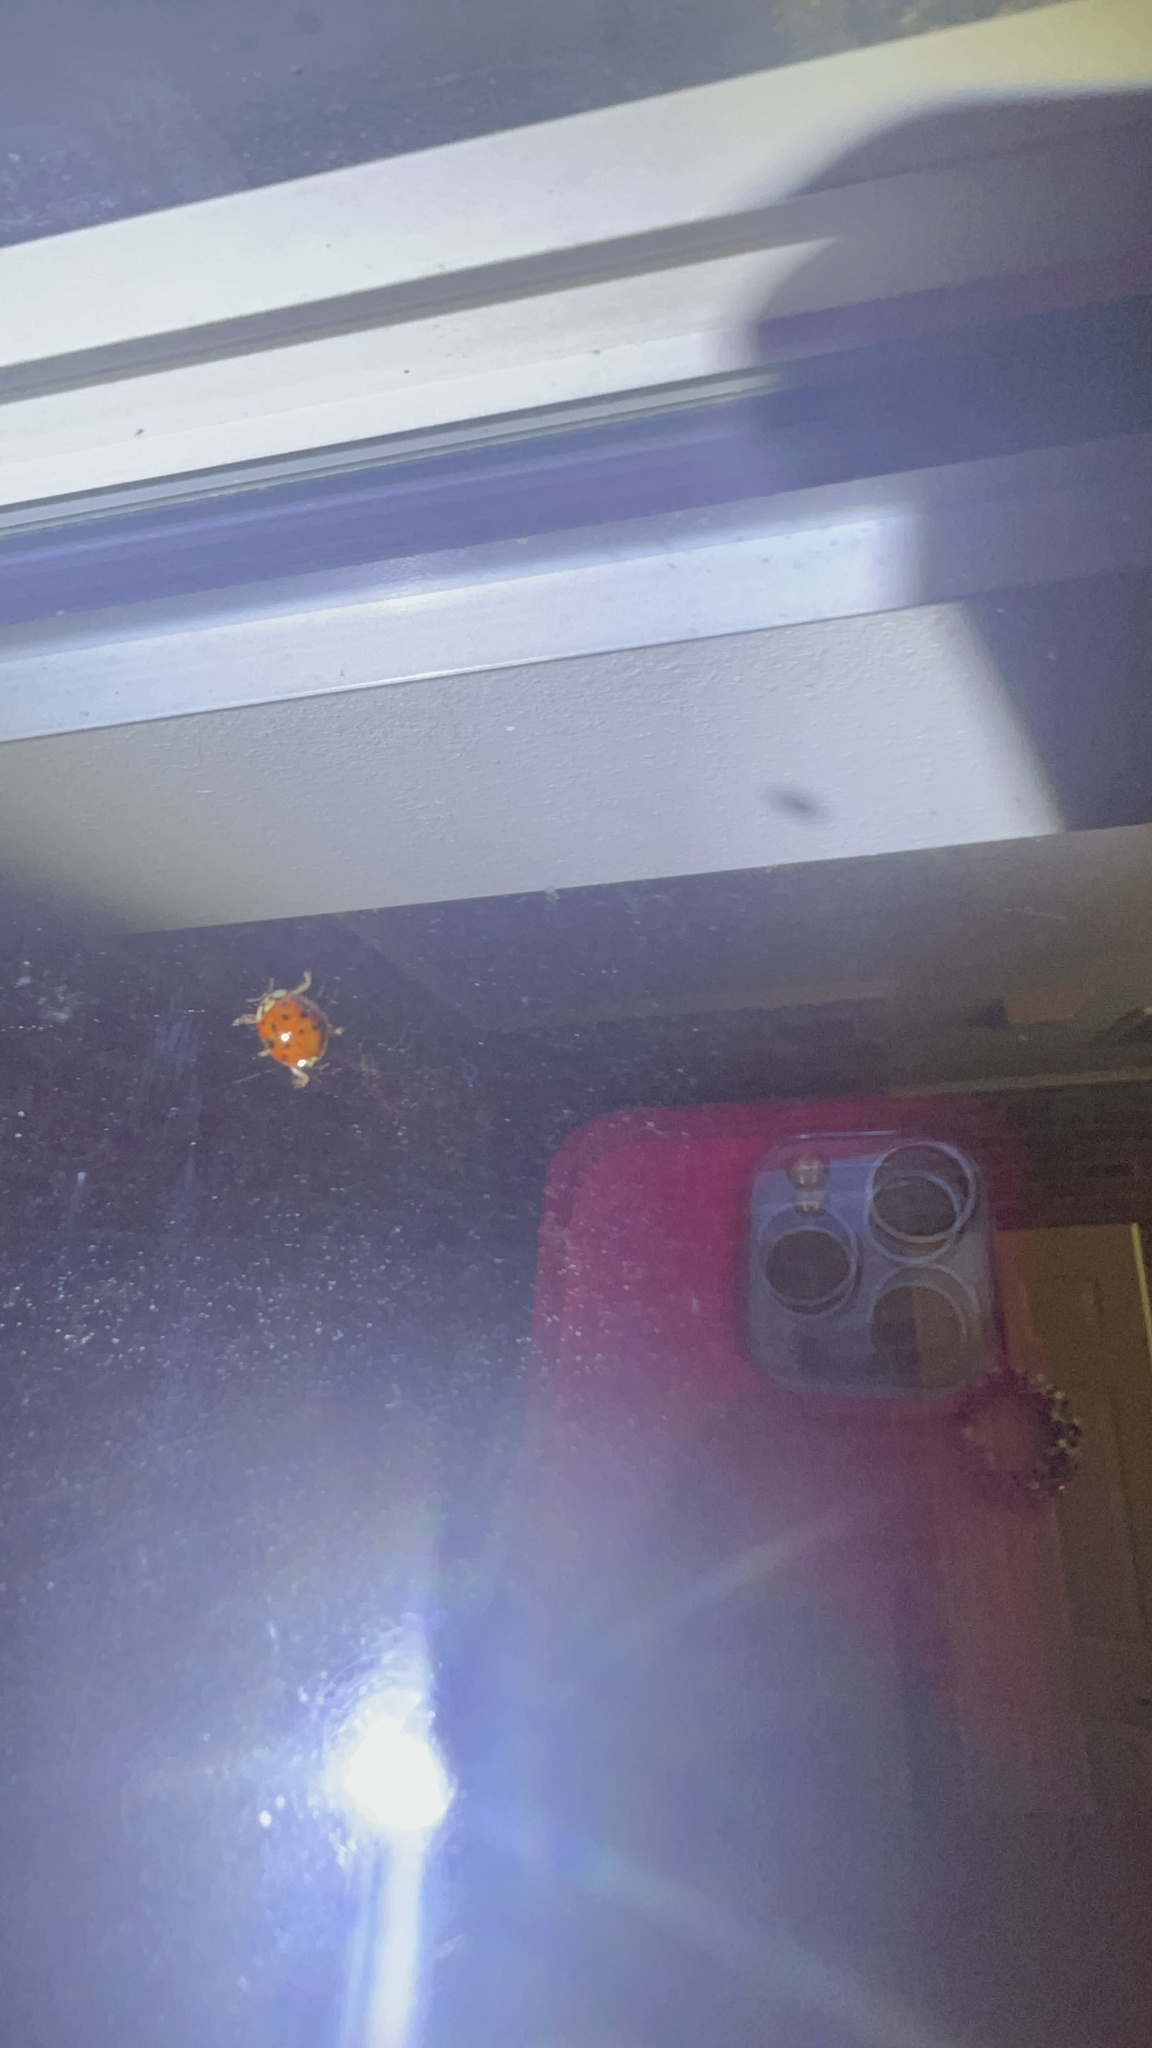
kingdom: Animalia
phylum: Arthropoda
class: Insecta
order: Coleoptera
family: Coccinellidae
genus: Harmonia
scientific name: Harmonia axyridis
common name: Harlequin ladybird
